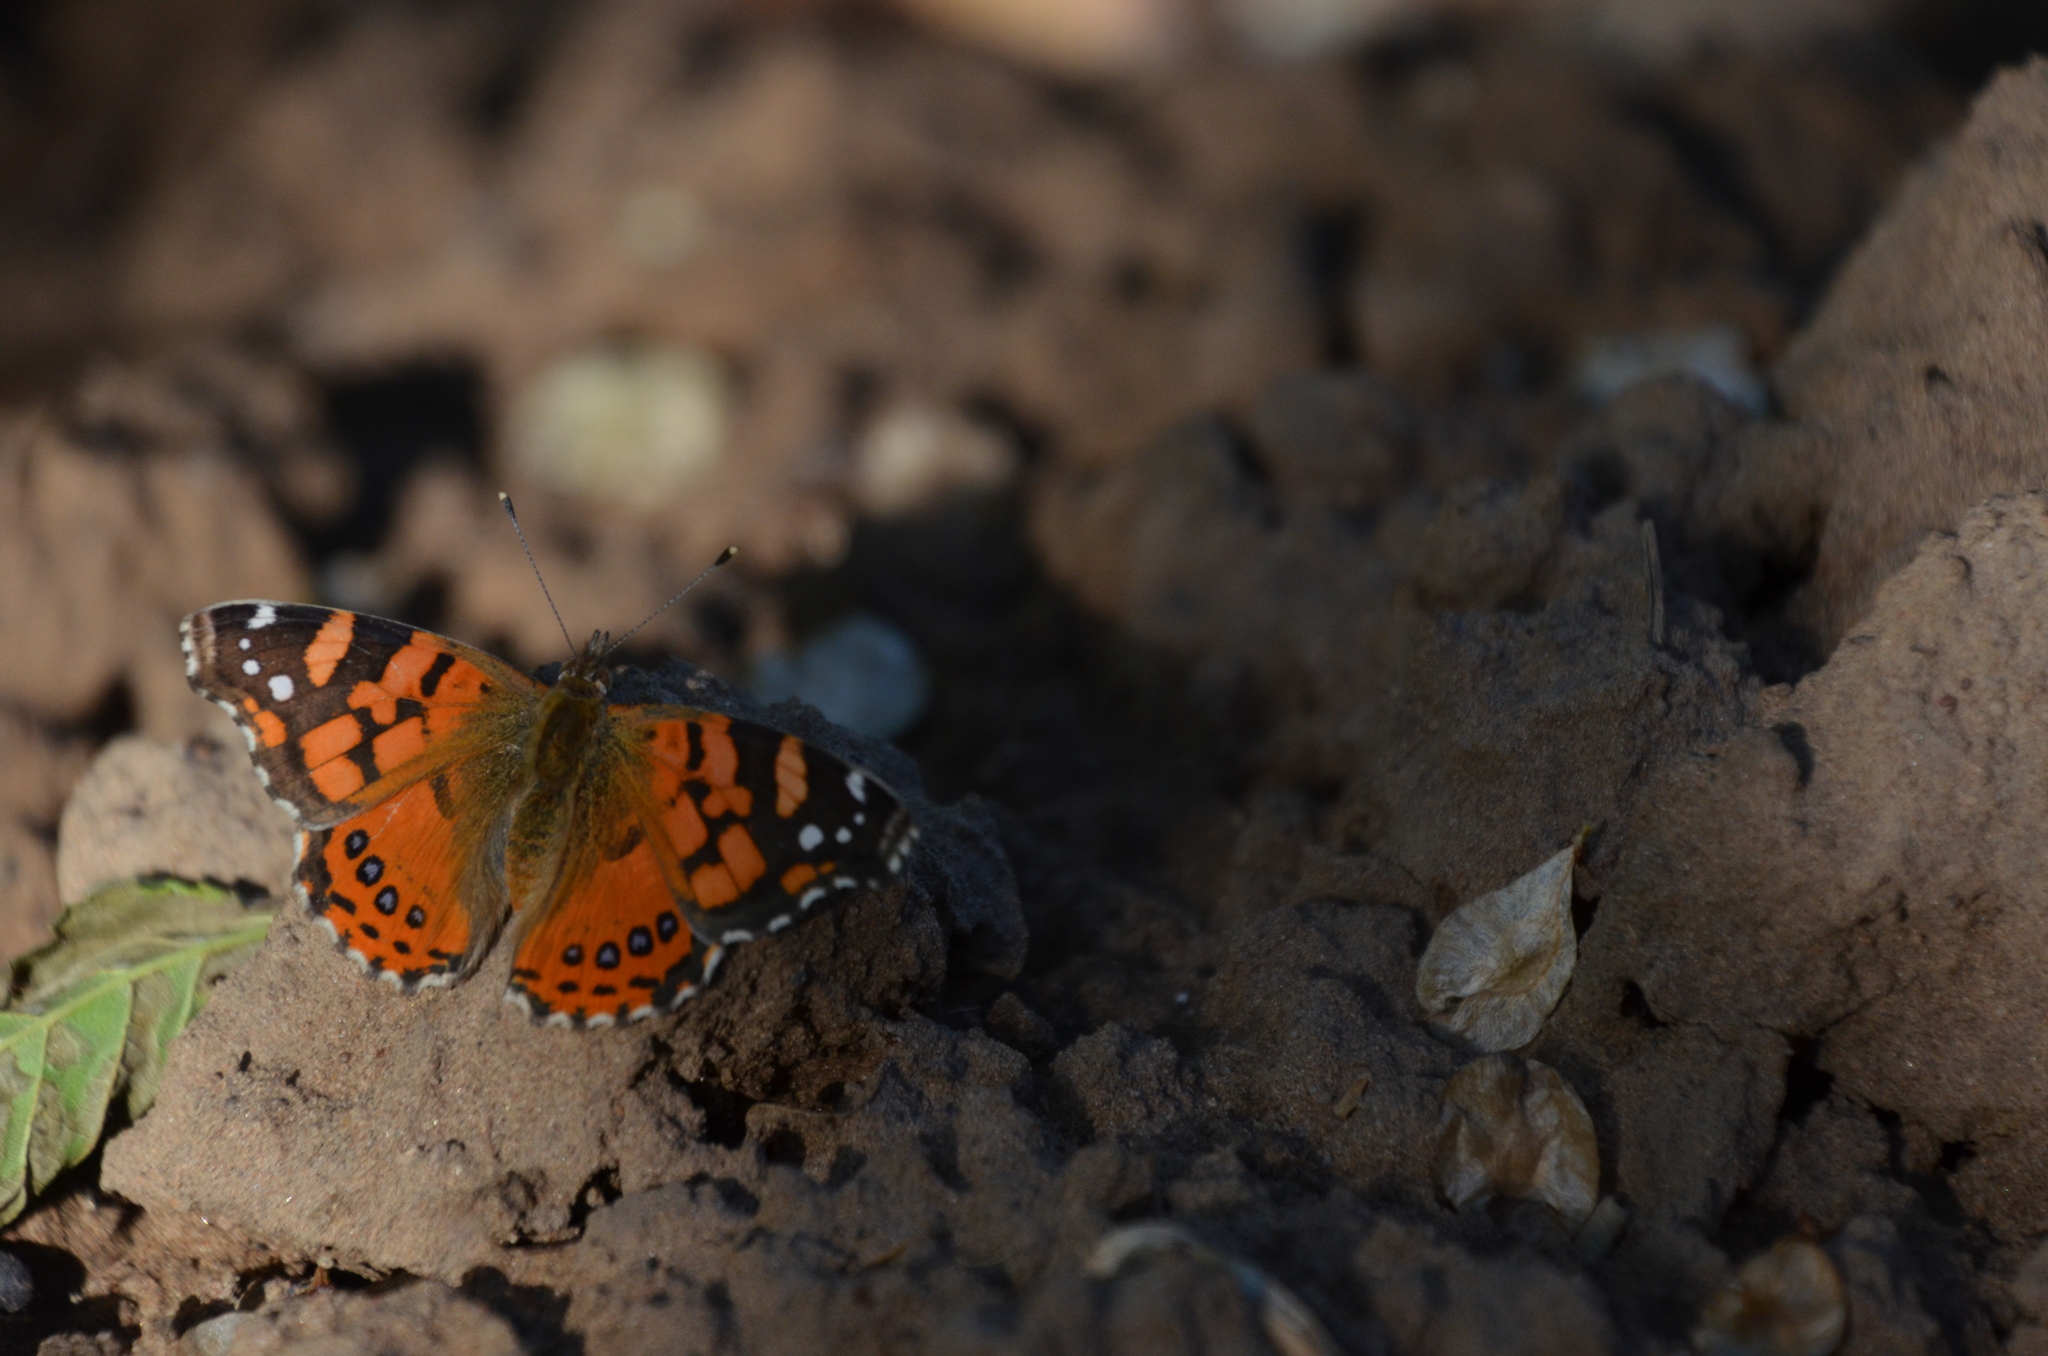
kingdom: Animalia
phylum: Arthropoda
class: Insecta
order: Lepidoptera
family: Nymphalidae
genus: Vanessa
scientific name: Vanessa carye
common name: Subtropical lady
